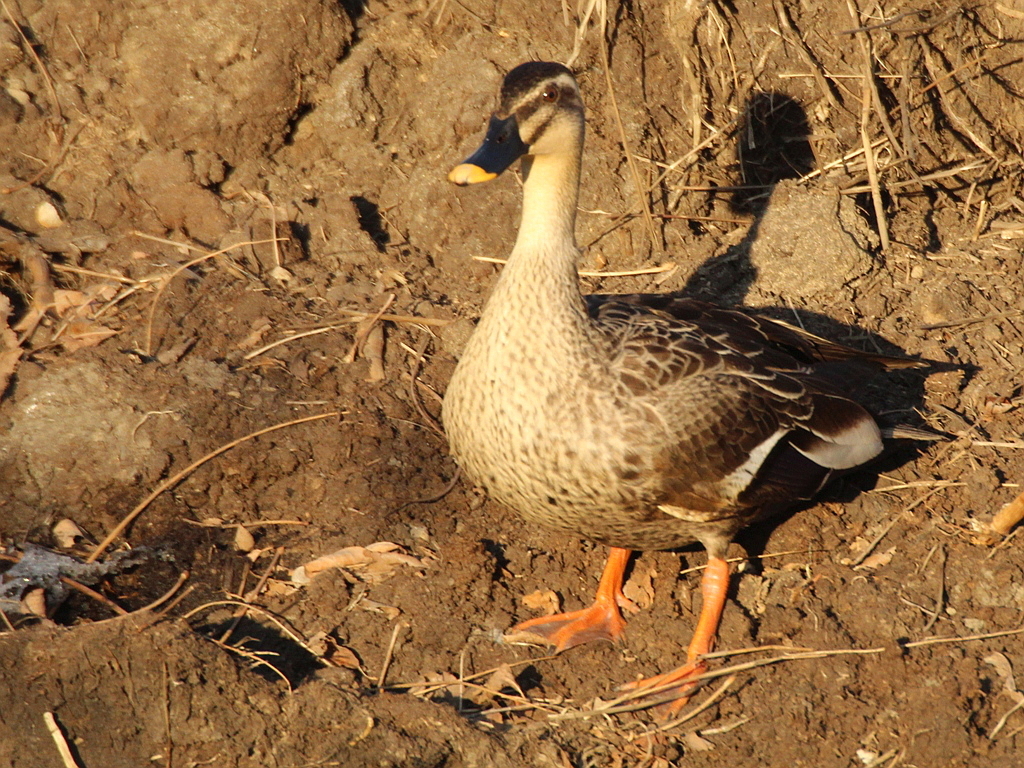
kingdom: Animalia
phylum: Chordata
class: Aves
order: Anseriformes
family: Anatidae
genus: Anas
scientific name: Anas zonorhyncha
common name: Eastern spot-billed duck
